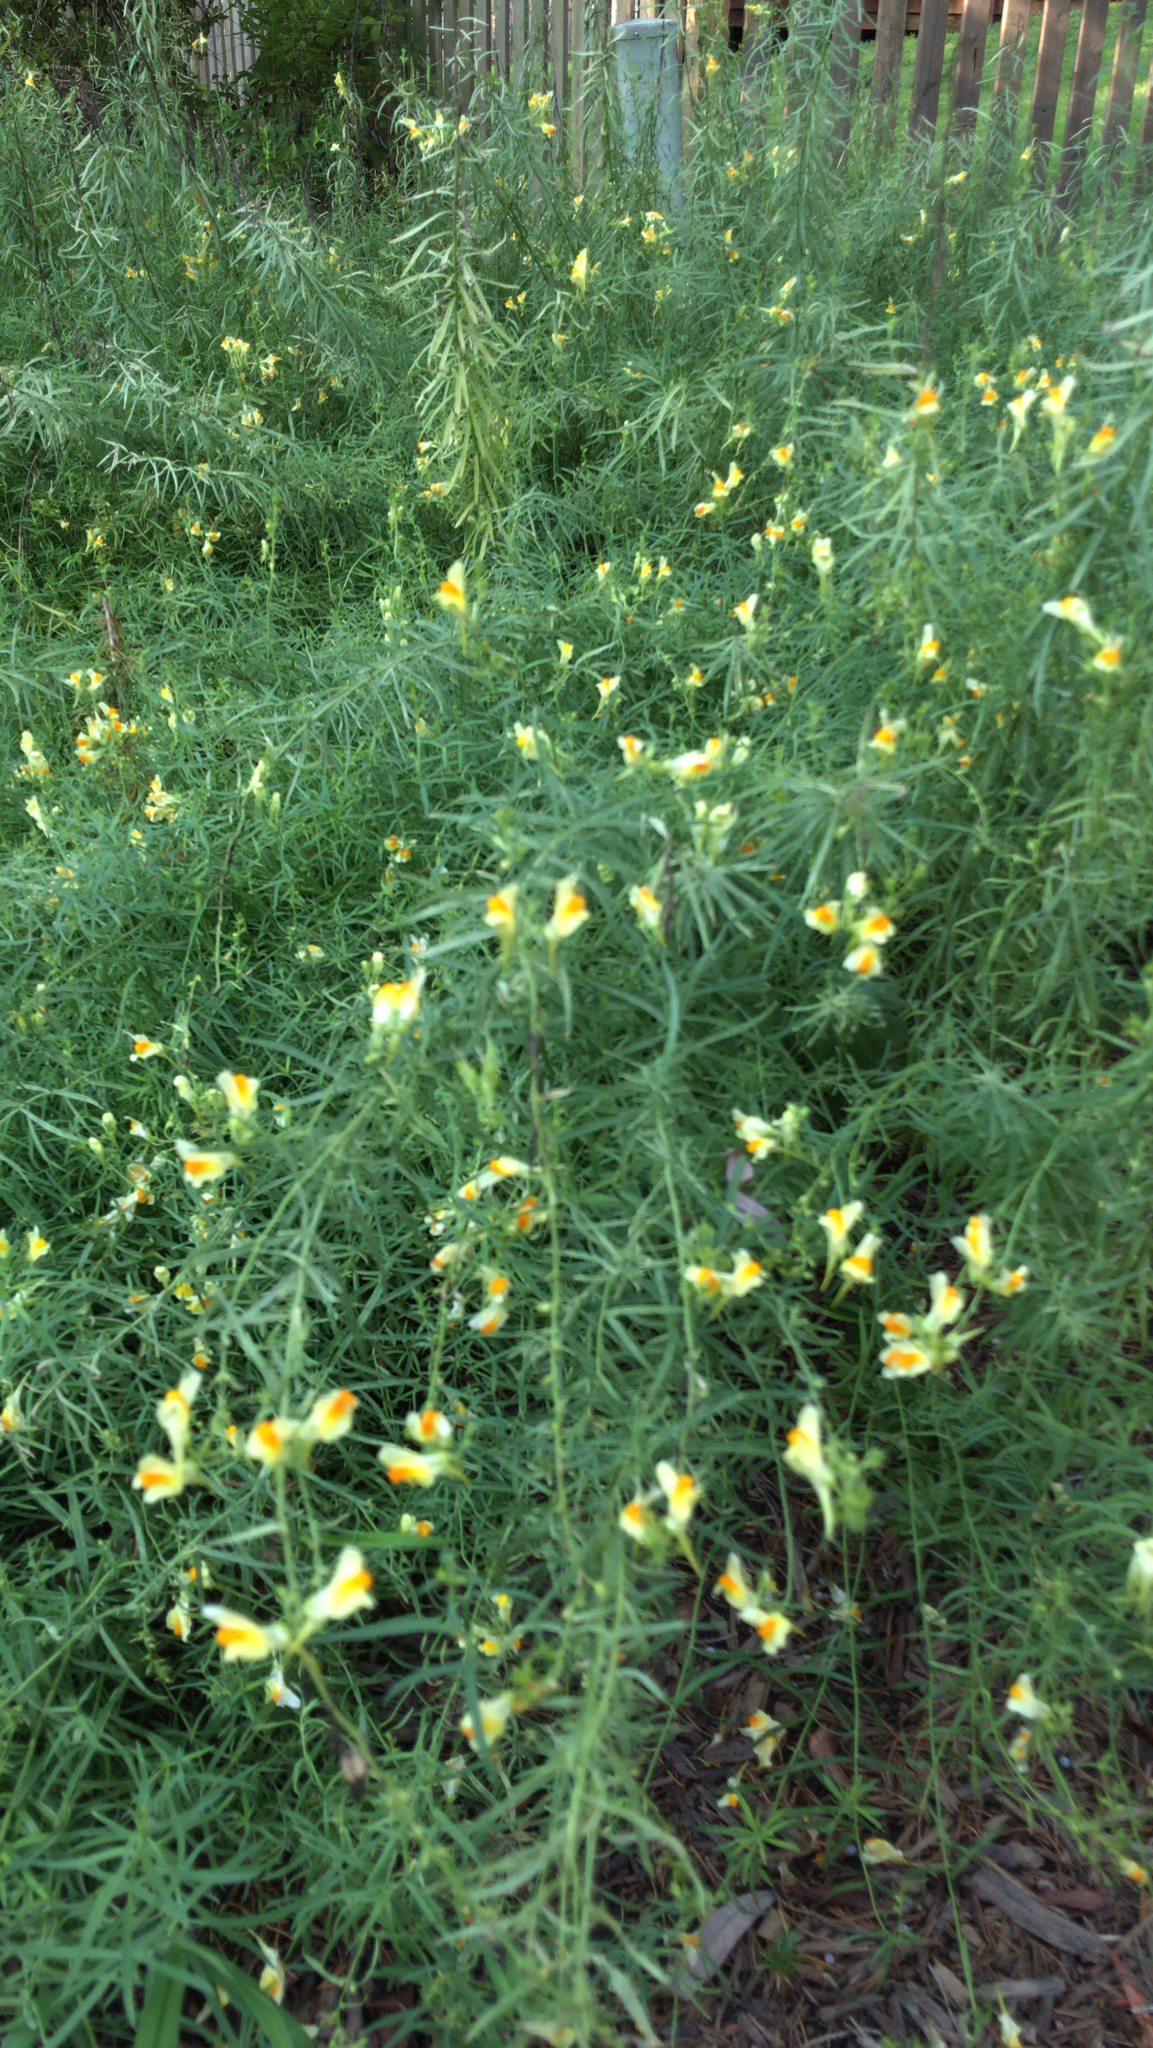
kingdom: Plantae
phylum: Tracheophyta
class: Magnoliopsida
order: Lamiales
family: Plantaginaceae
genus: Linaria
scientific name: Linaria vulgaris
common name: Butter and eggs
